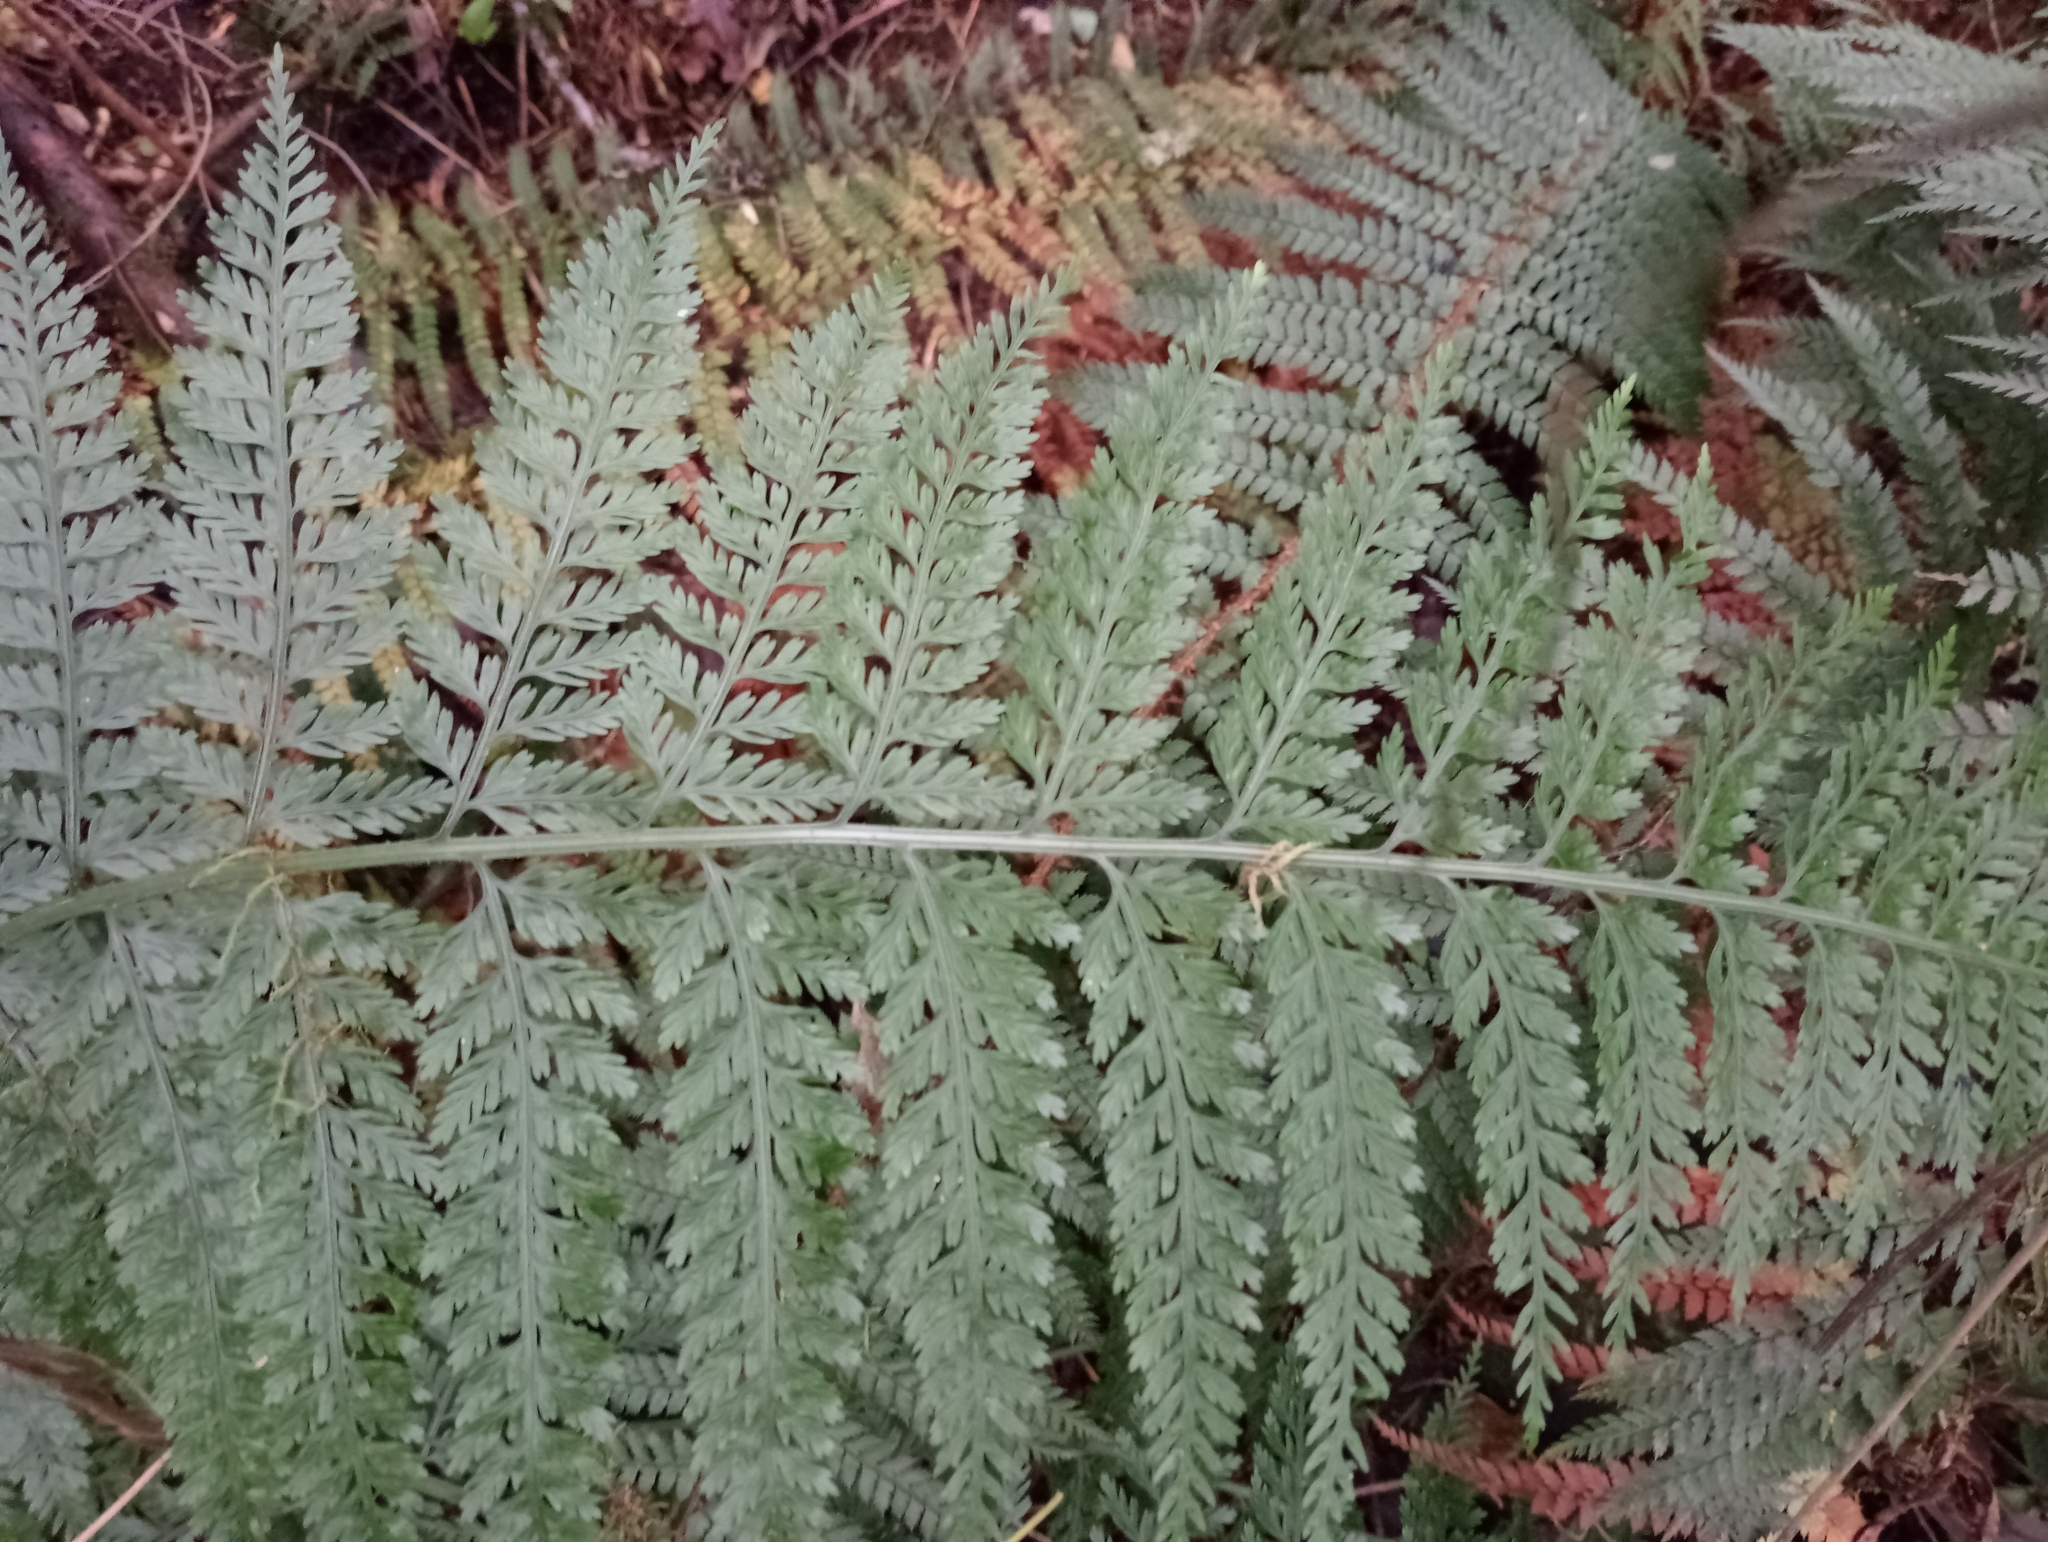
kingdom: Plantae
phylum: Tracheophyta
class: Polypodiopsida
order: Polypodiales
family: Aspleniaceae
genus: Asplenium
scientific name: Asplenium
